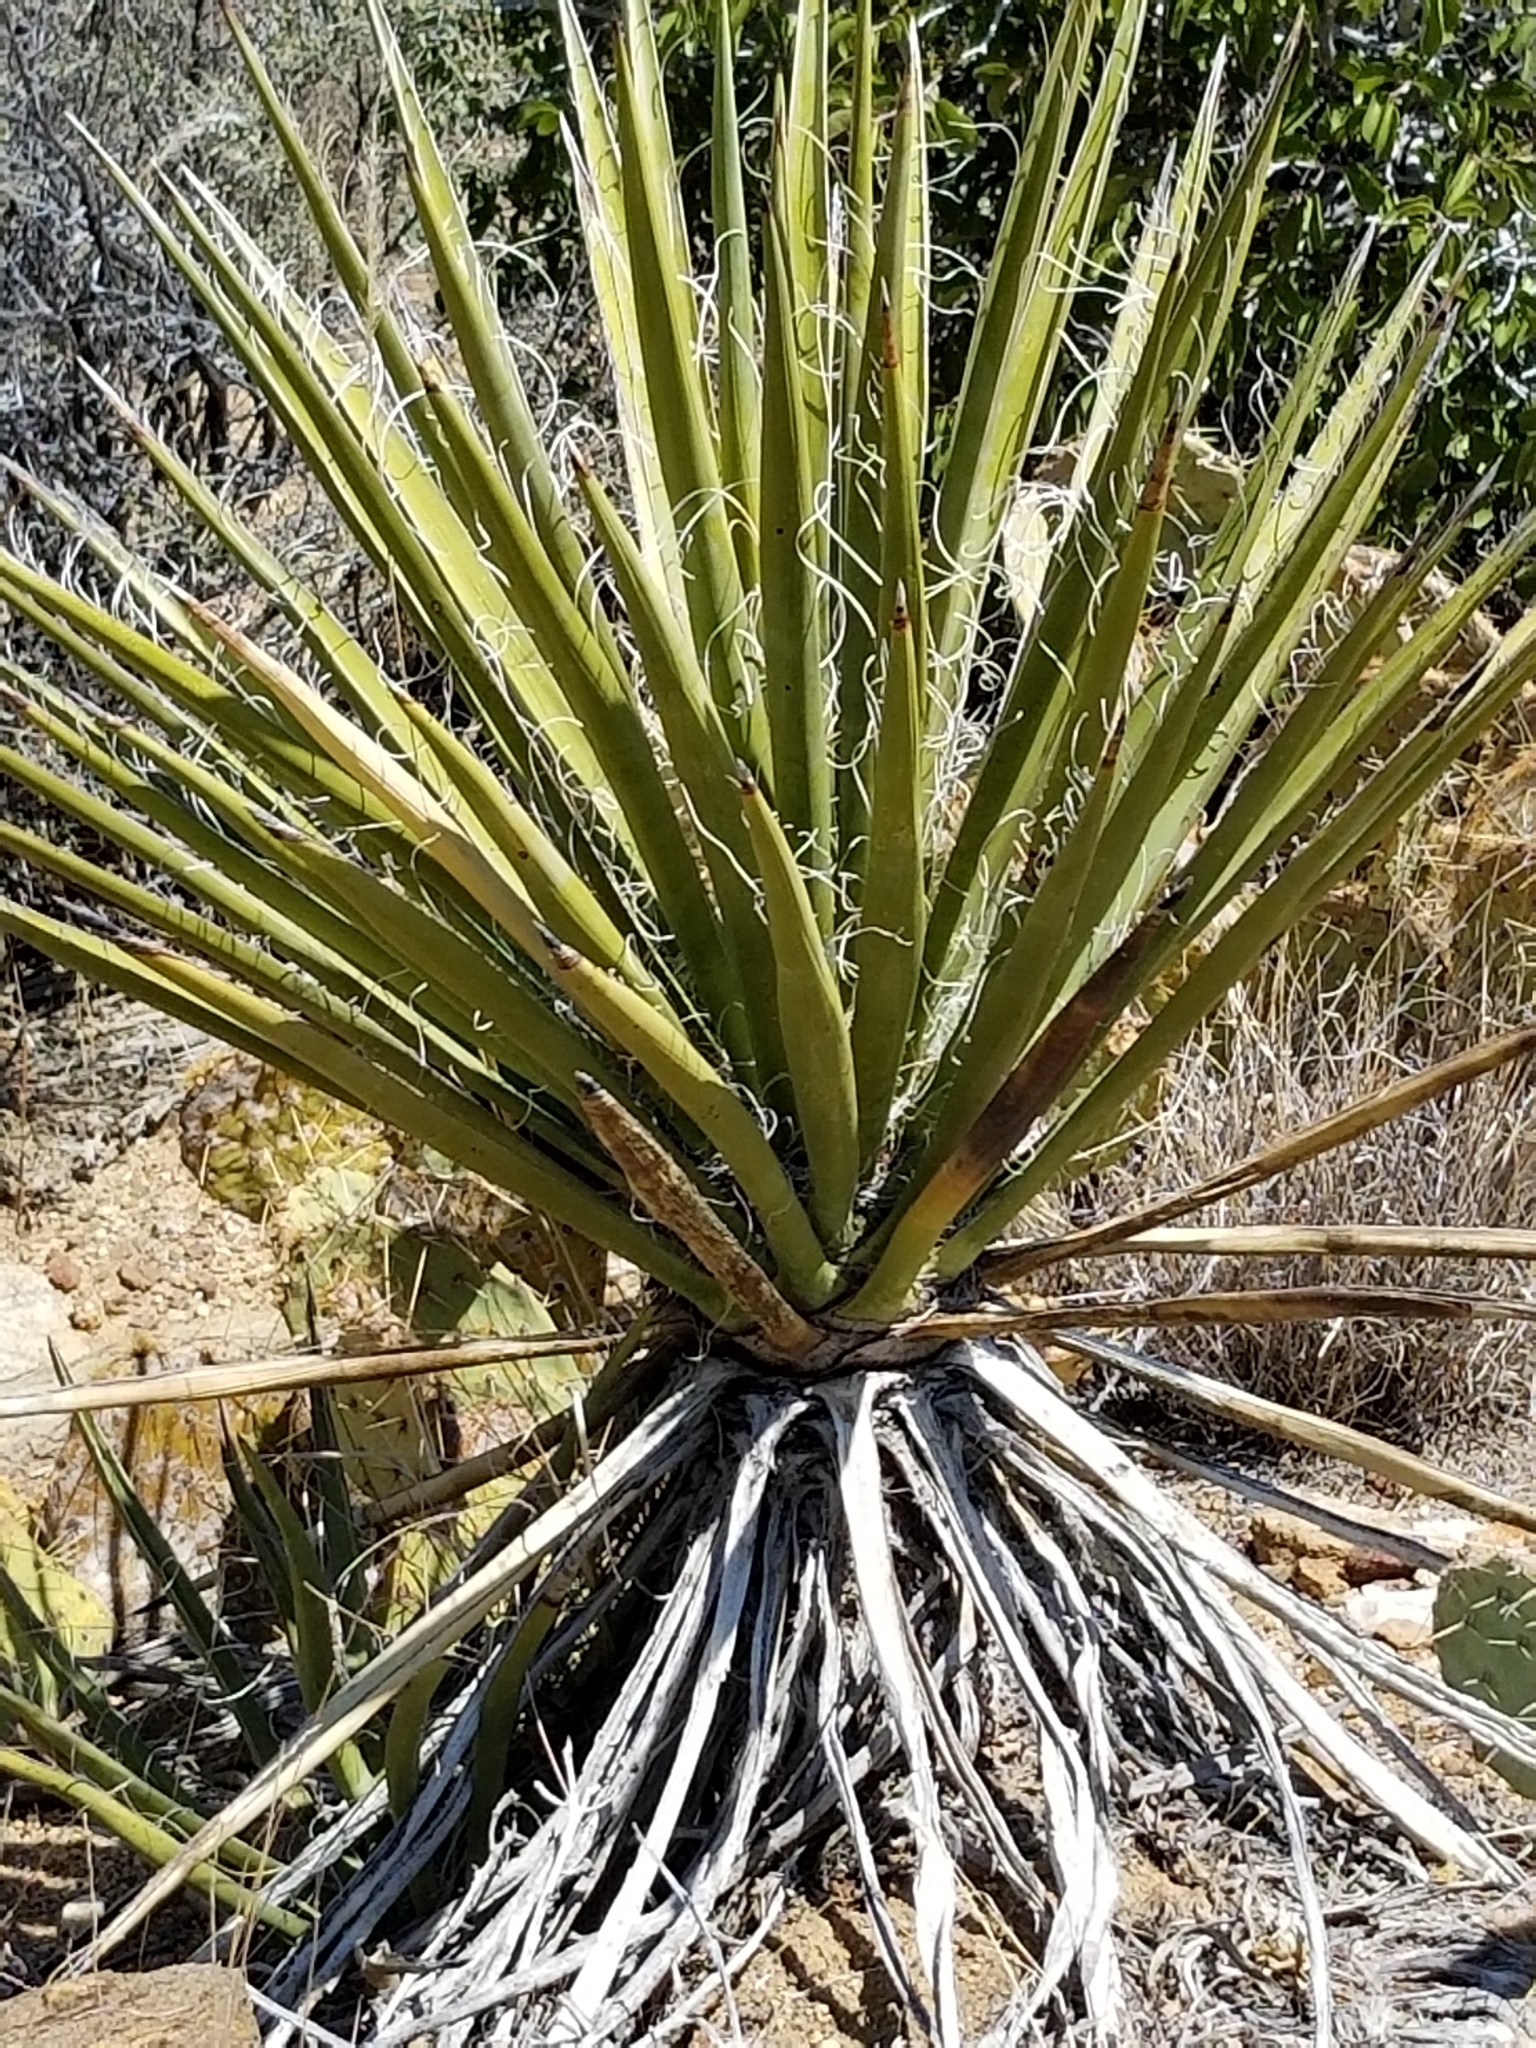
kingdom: Plantae
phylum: Tracheophyta
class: Liliopsida
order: Asparagales
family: Asparagaceae
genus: Yucca
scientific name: Yucca schidigera
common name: Mojave yucca
